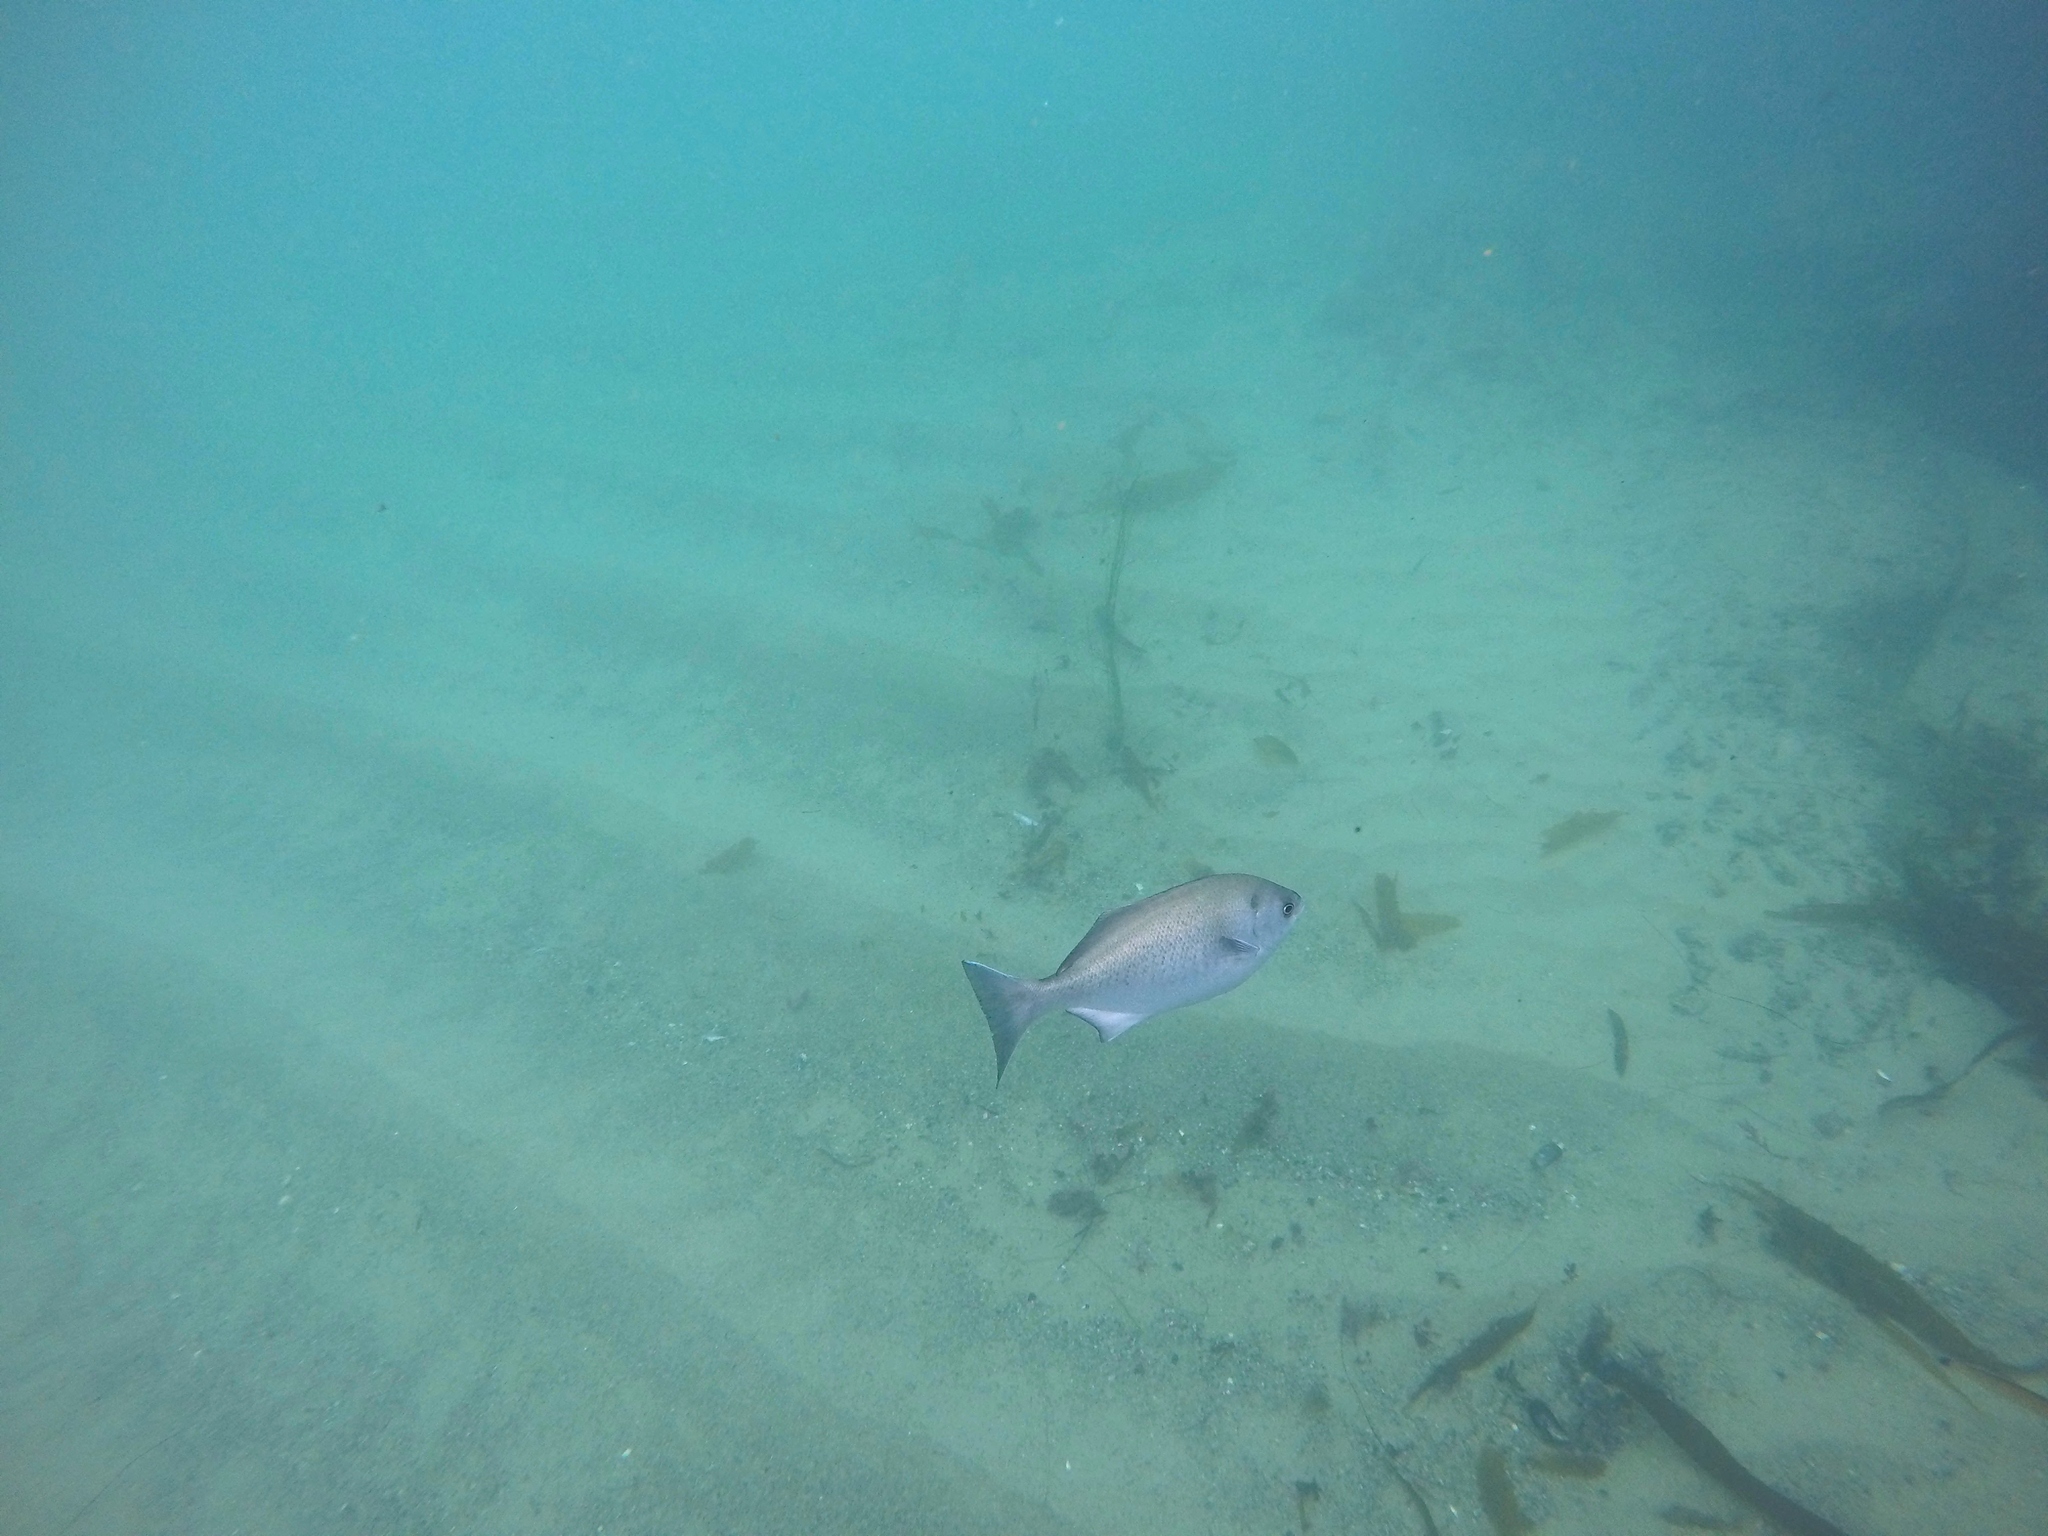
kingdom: Animalia
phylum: Chordata
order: Perciformes
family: Kyphosidae
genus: Medialuna
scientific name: Medialuna californiensis
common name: Halfmoon
